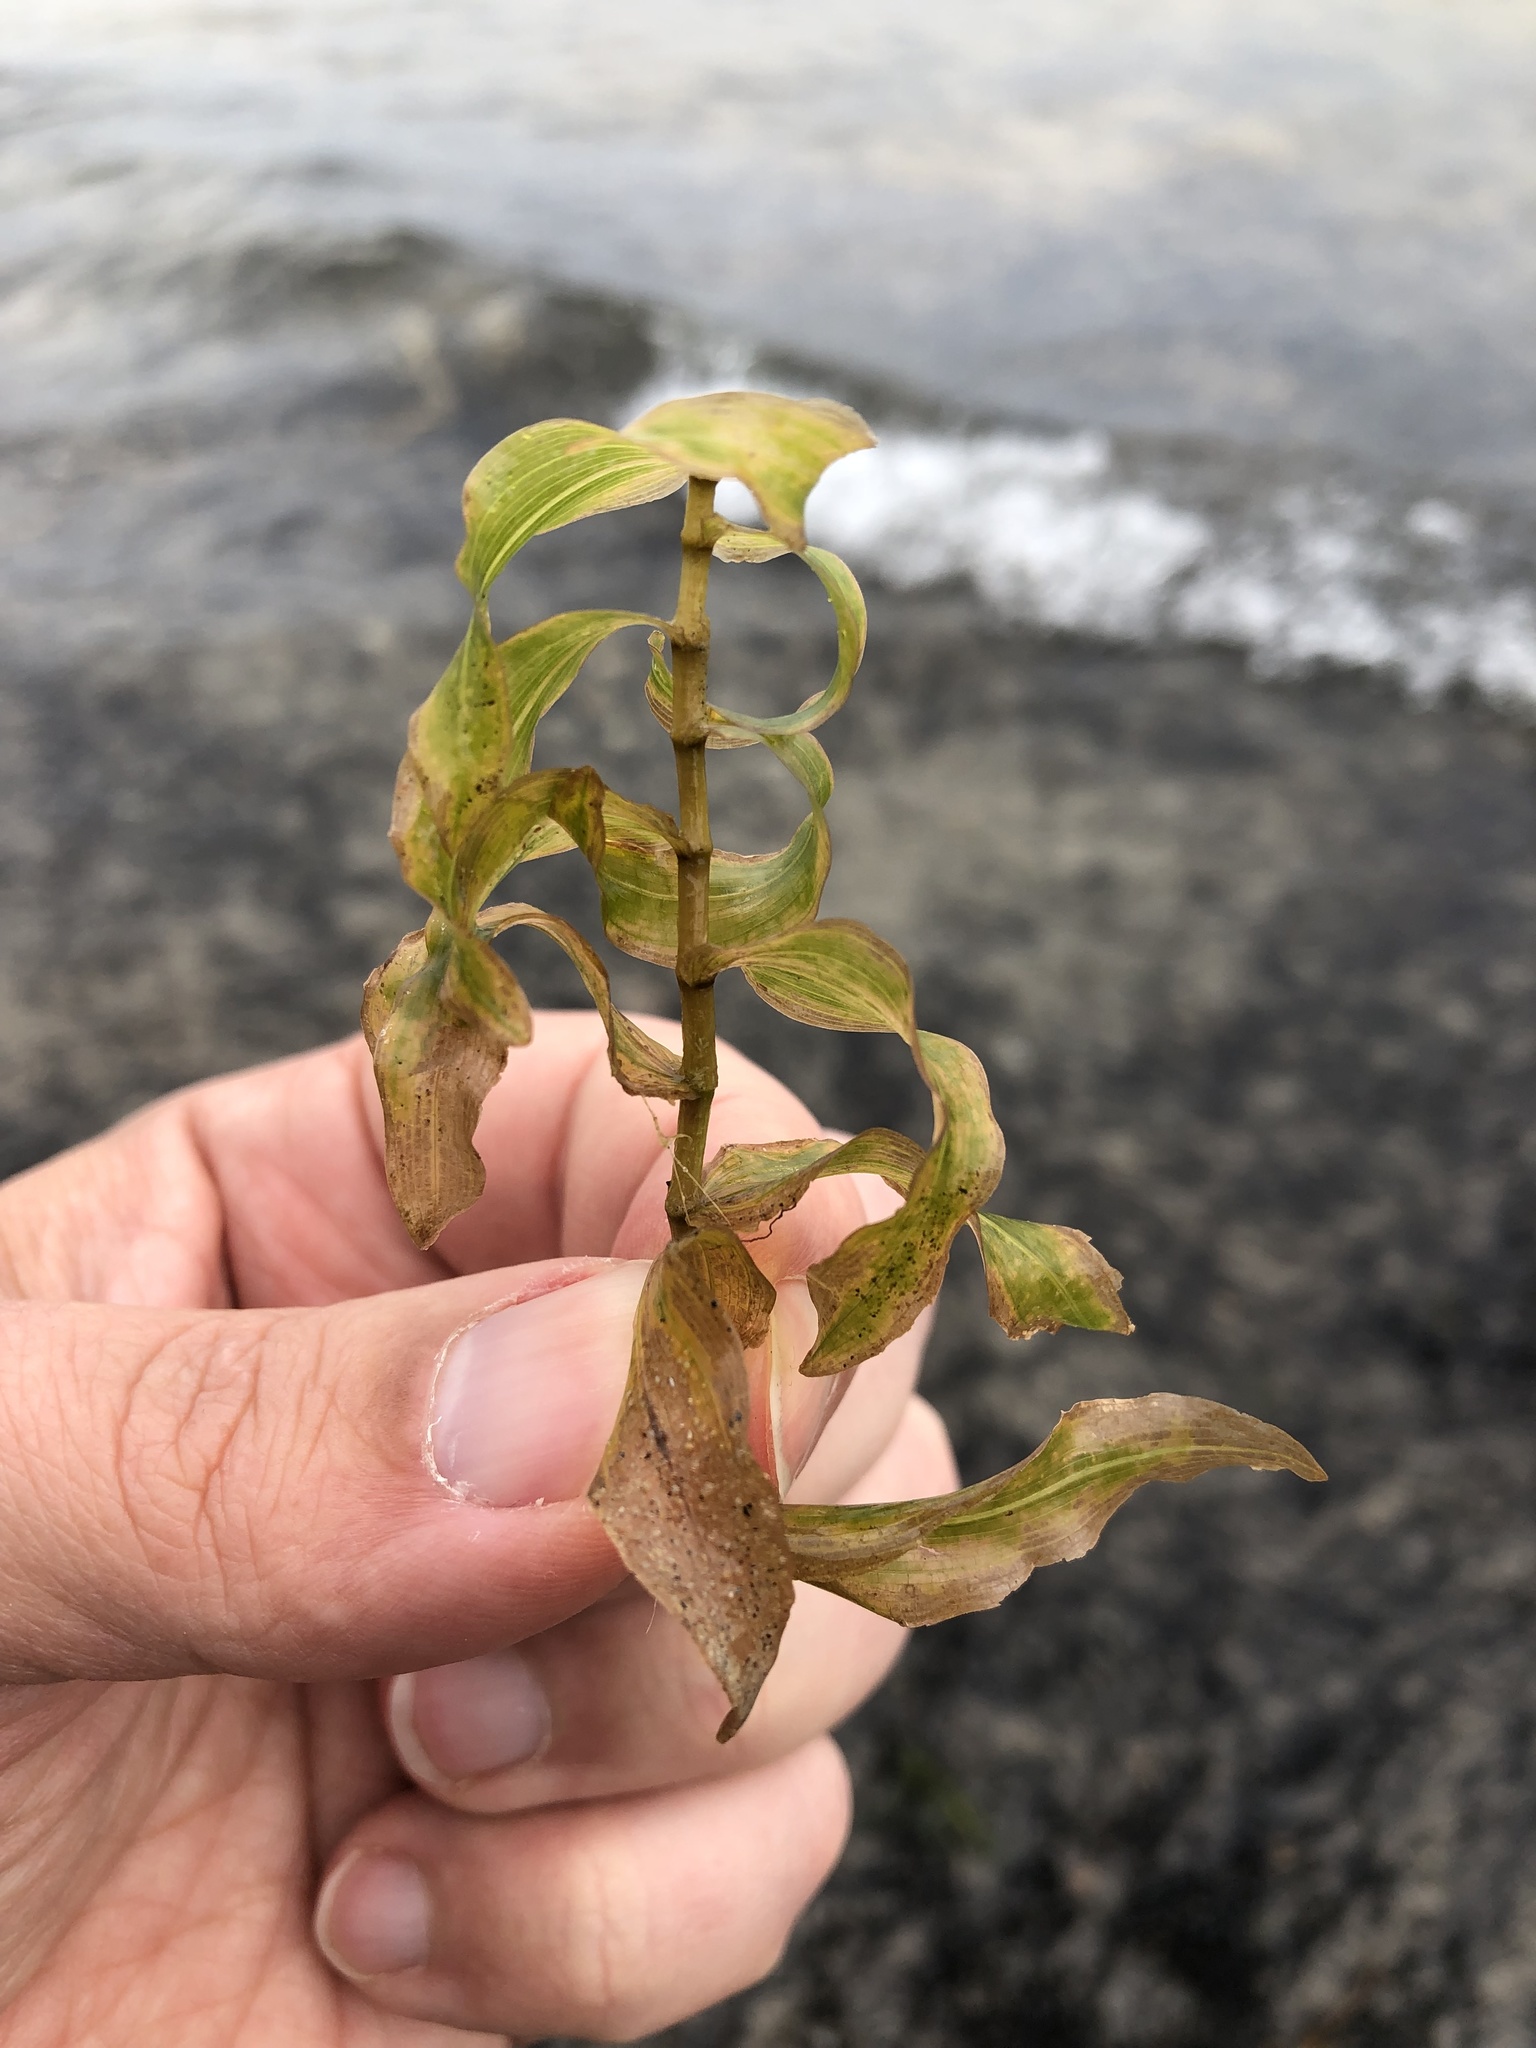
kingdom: Plantae
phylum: Tracheophyta
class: Liliopsida
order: Alismatales
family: Potamogetonaceae
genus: Potamogeton
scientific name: Potamogeton richardsonii
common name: Richardson's pondweed
